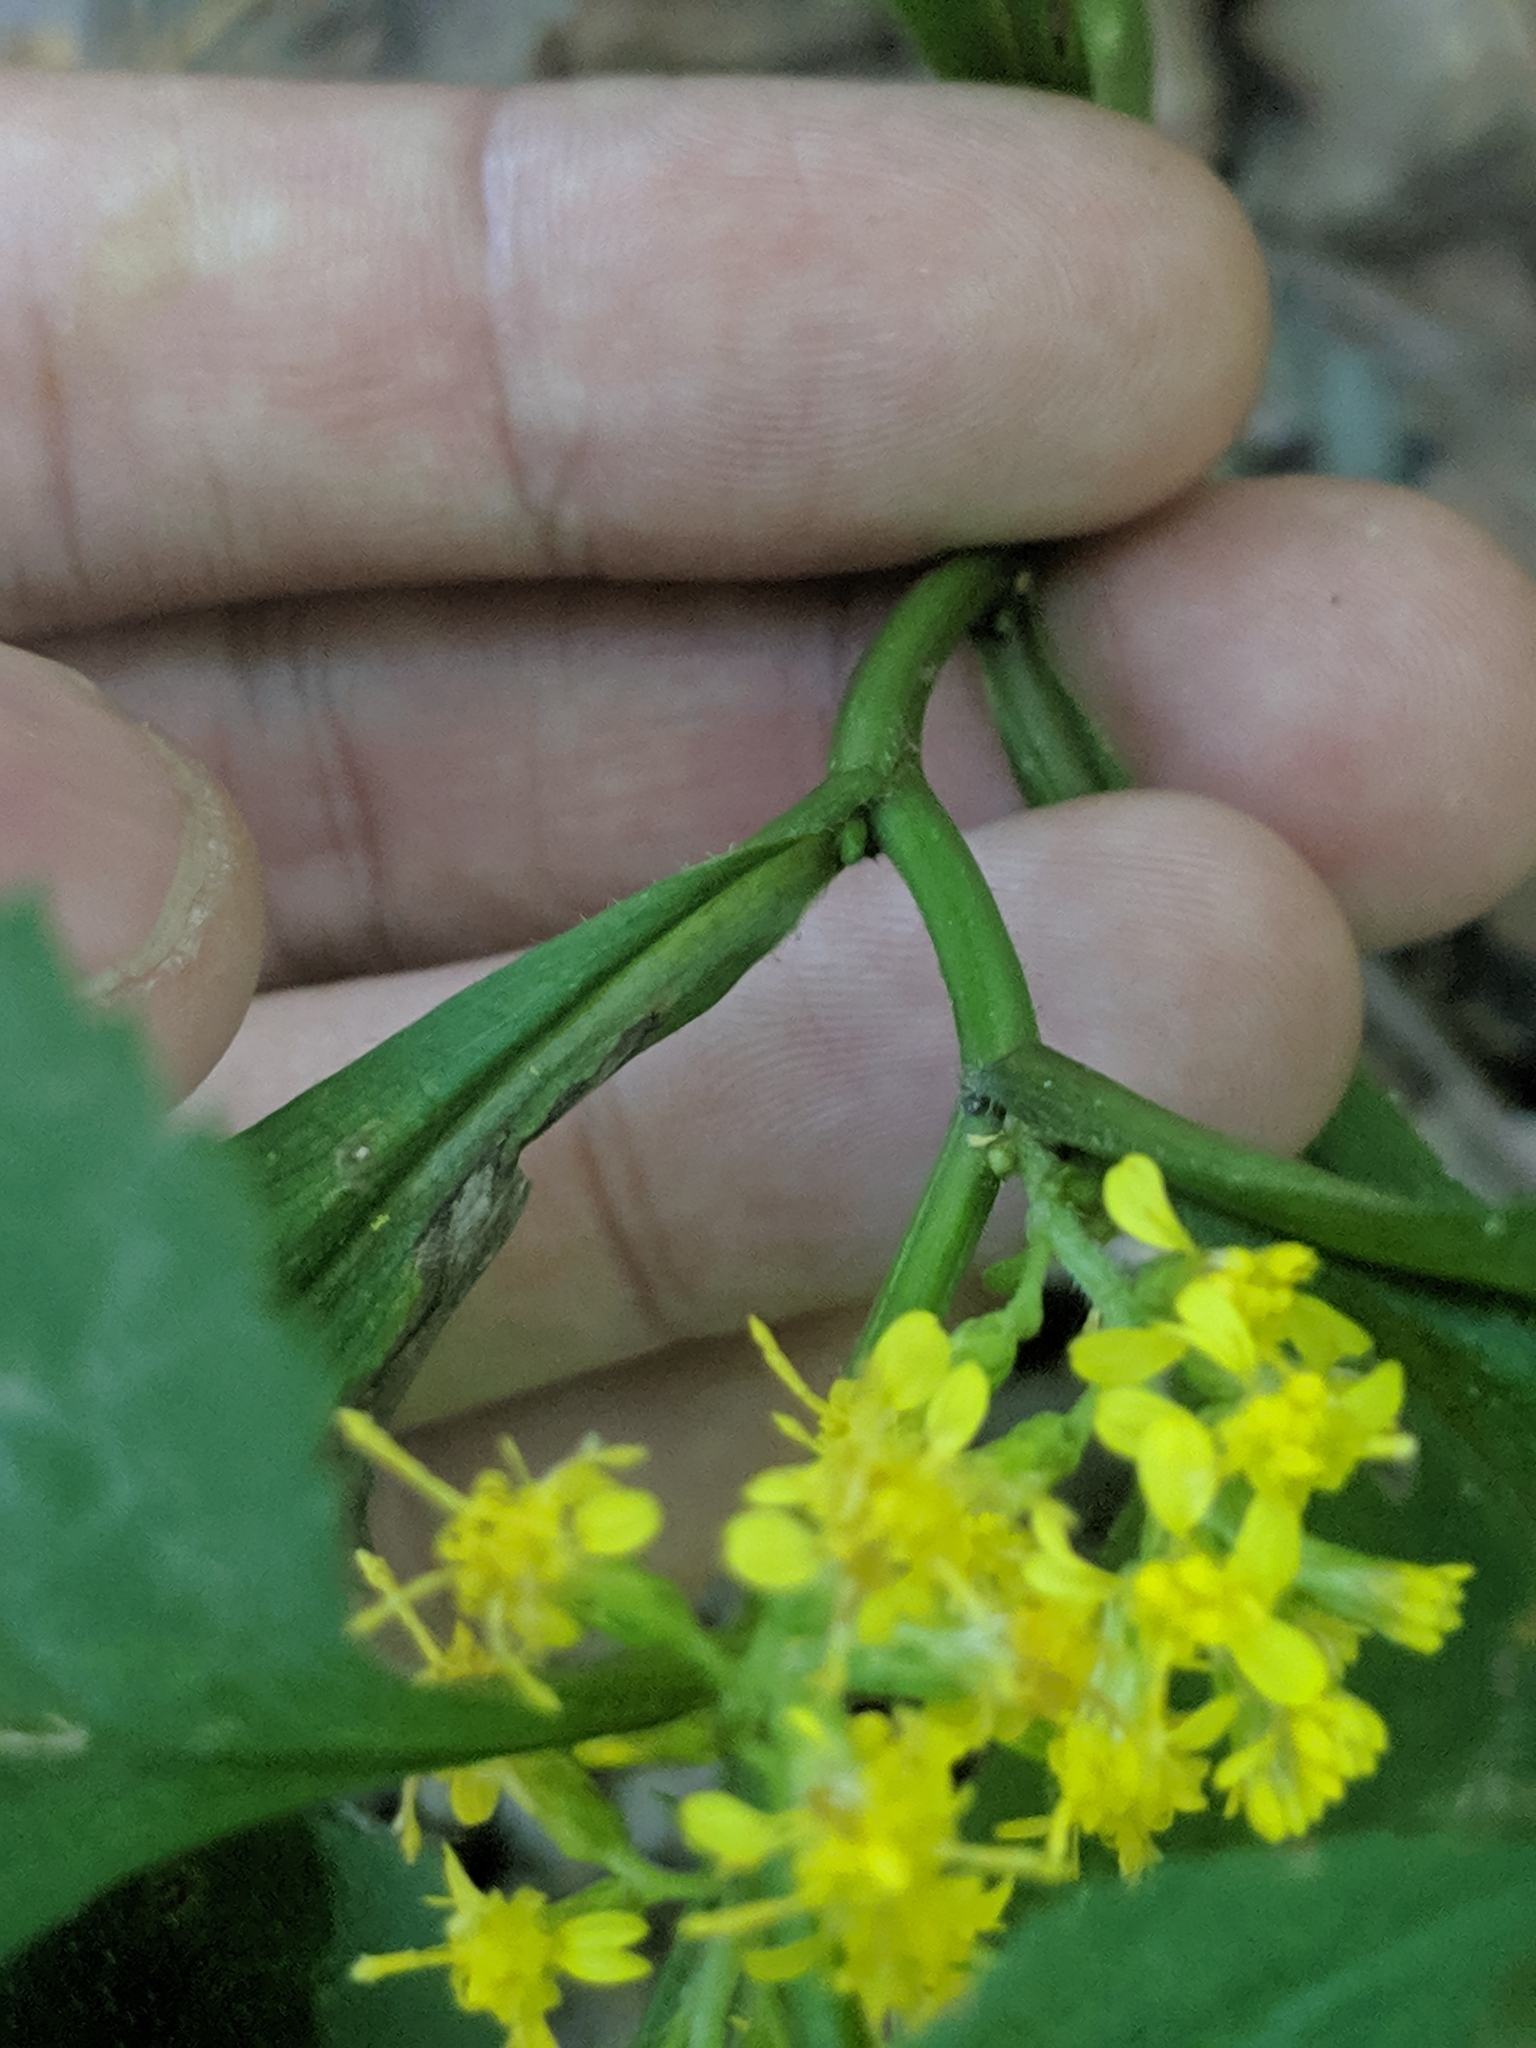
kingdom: Plantae
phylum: Tracheophyta
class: Magnoliopsida
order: Asterales
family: Asteraceae
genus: Solidago
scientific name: Solidago flexicaulis
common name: Zig-zag goldenrod
